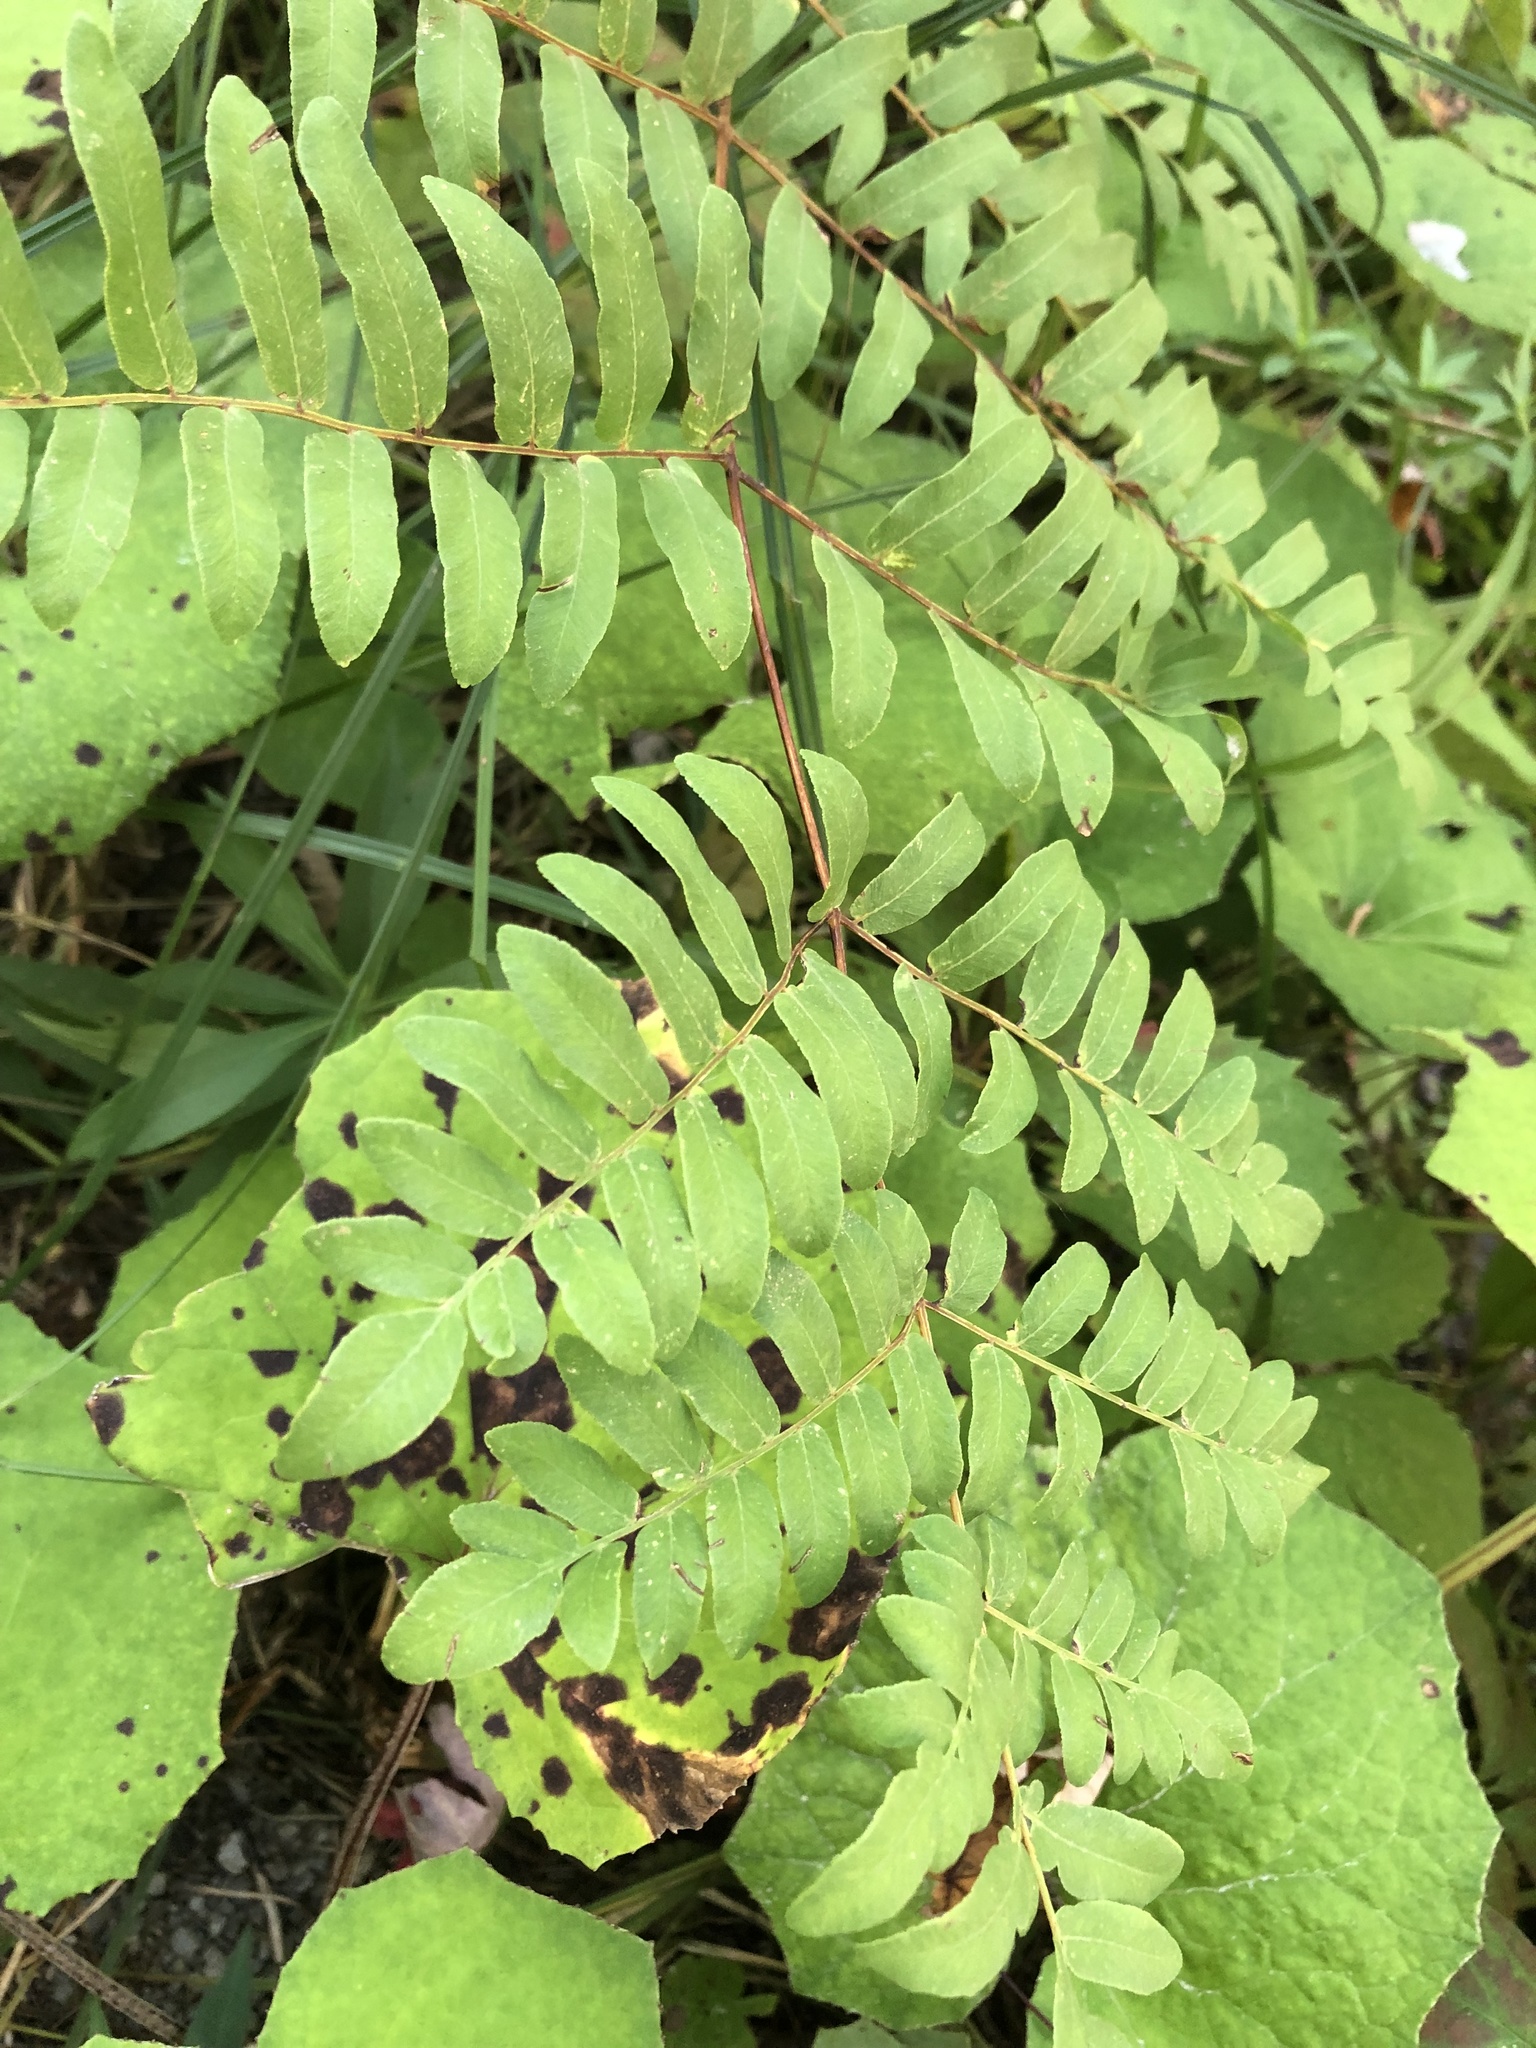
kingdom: Plantae
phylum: Tracheophyta
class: Polypodiopsida
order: Osmundales
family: Osmundaceae
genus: Osmunda
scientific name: Osmunda spectabilis
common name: American royal fern
